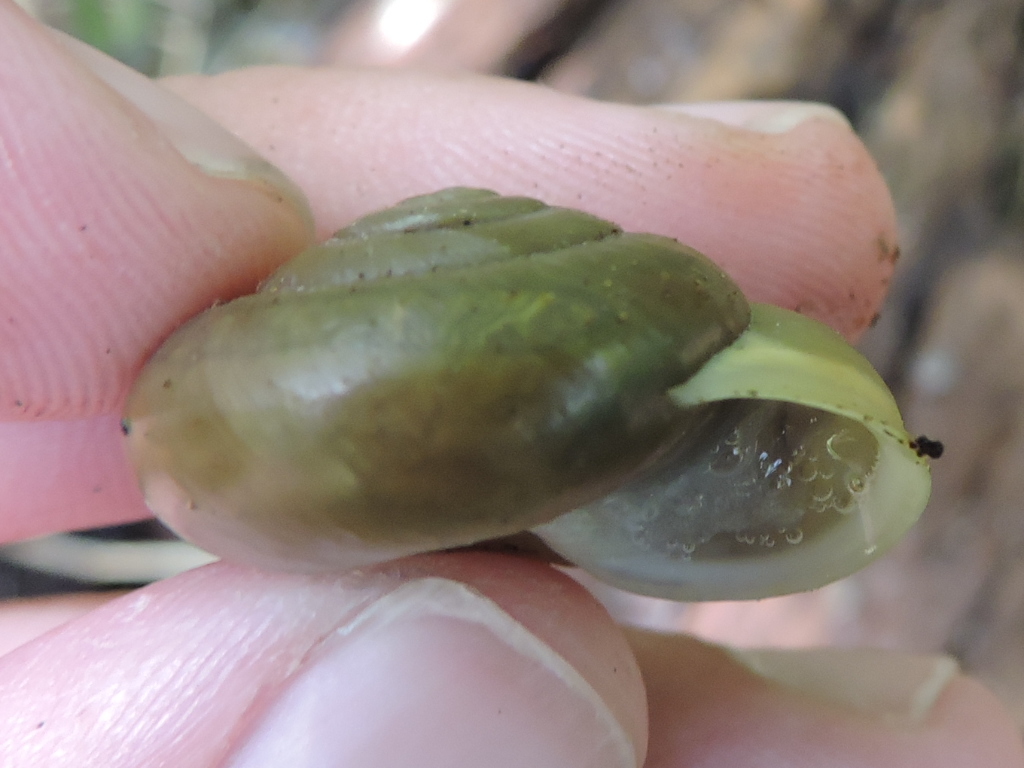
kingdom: Animalia
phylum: Mollusca
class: Gastropoda
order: Stylommatophora
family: Polygyridae
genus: Patera
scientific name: Patera roemeri
